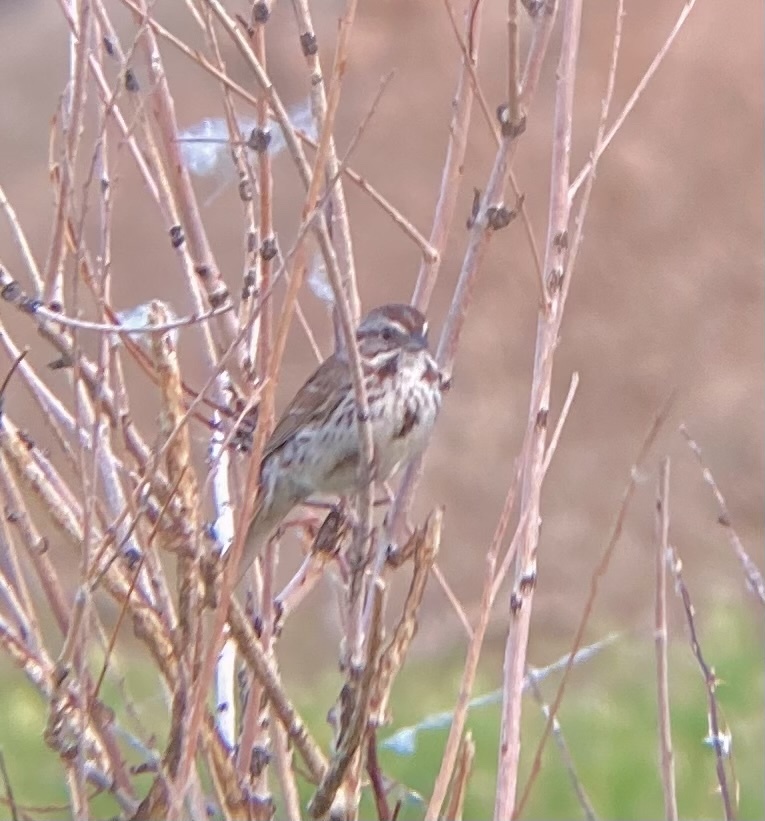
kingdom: Animalia
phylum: Chordata
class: Aves
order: Passeriformes
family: Passerellidae
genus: Melospiza
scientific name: Melospiza melodia
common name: Song sparrow
